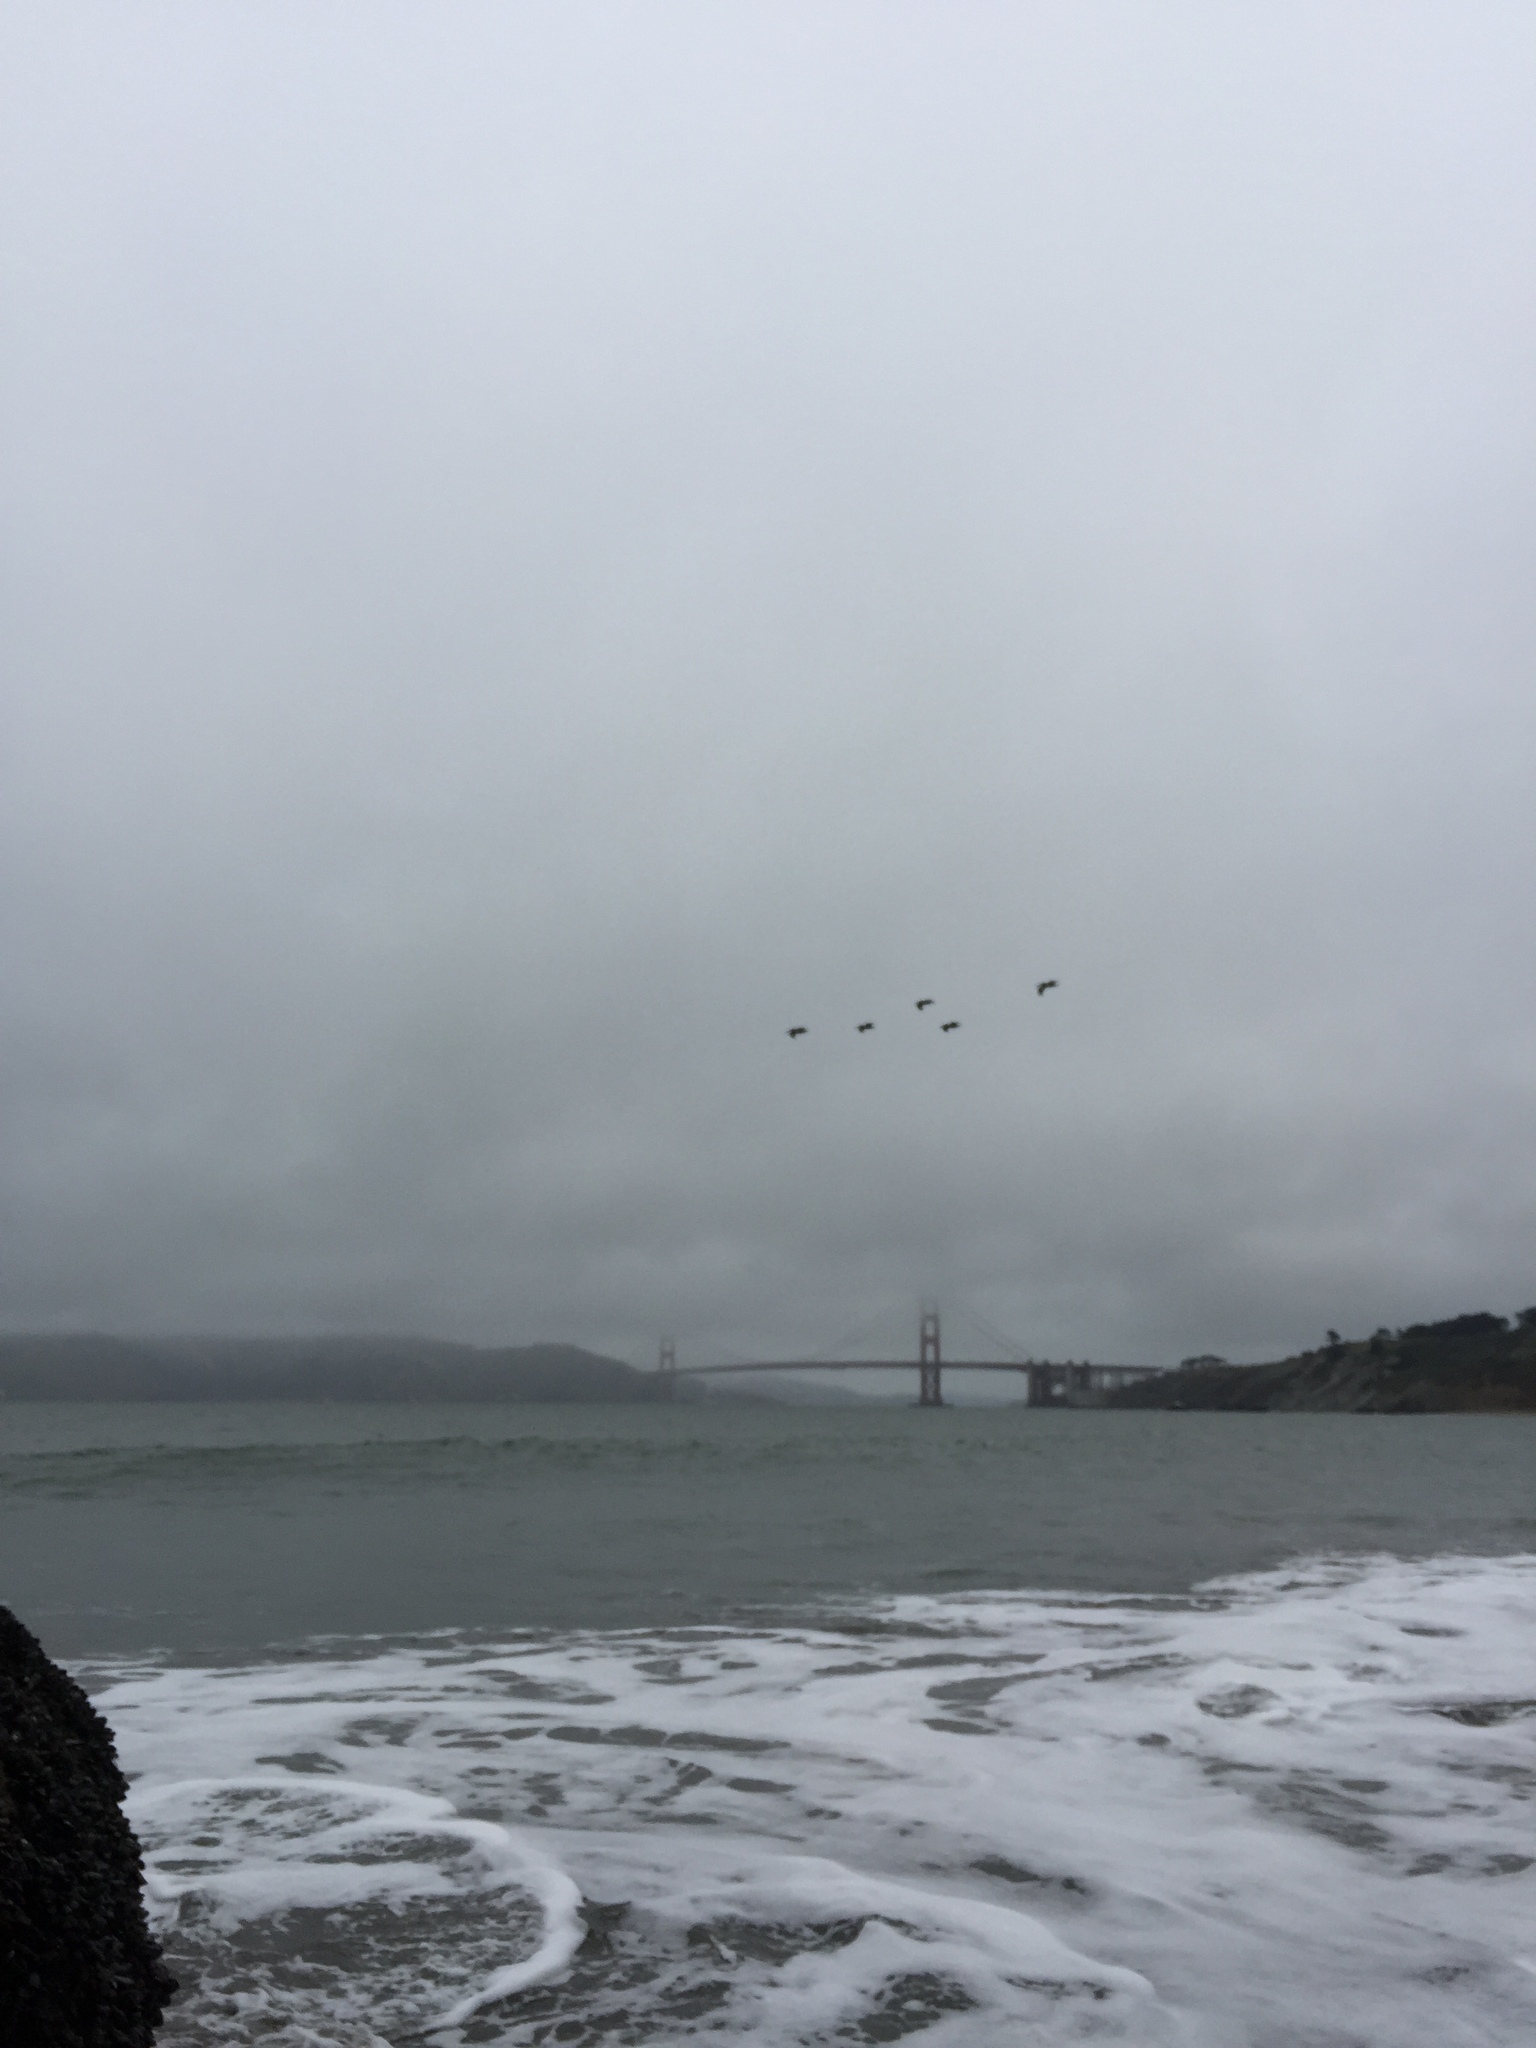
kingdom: Animalia
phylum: Chordata
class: Aves
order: Pelecaniformes
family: Pelecanidae
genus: Pelecanus
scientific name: Pelecanus occidentalis
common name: Brown pelican
